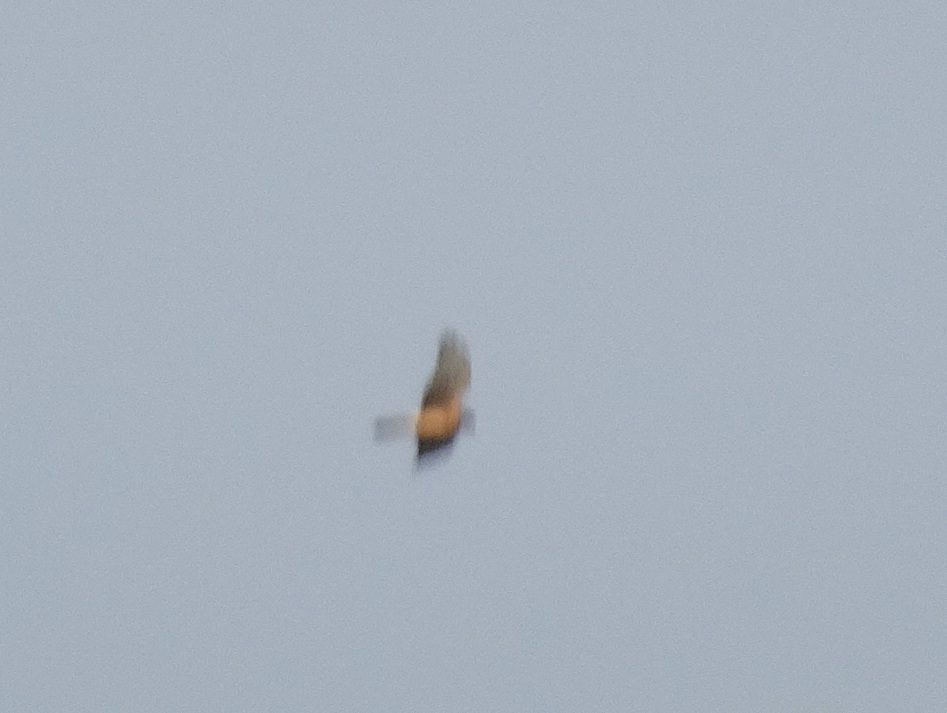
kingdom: Animalia
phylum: Chordata
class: Aves
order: Accipitriformes
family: Accipitridae
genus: Circus
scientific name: Circus cyaneus
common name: Hen harrier
